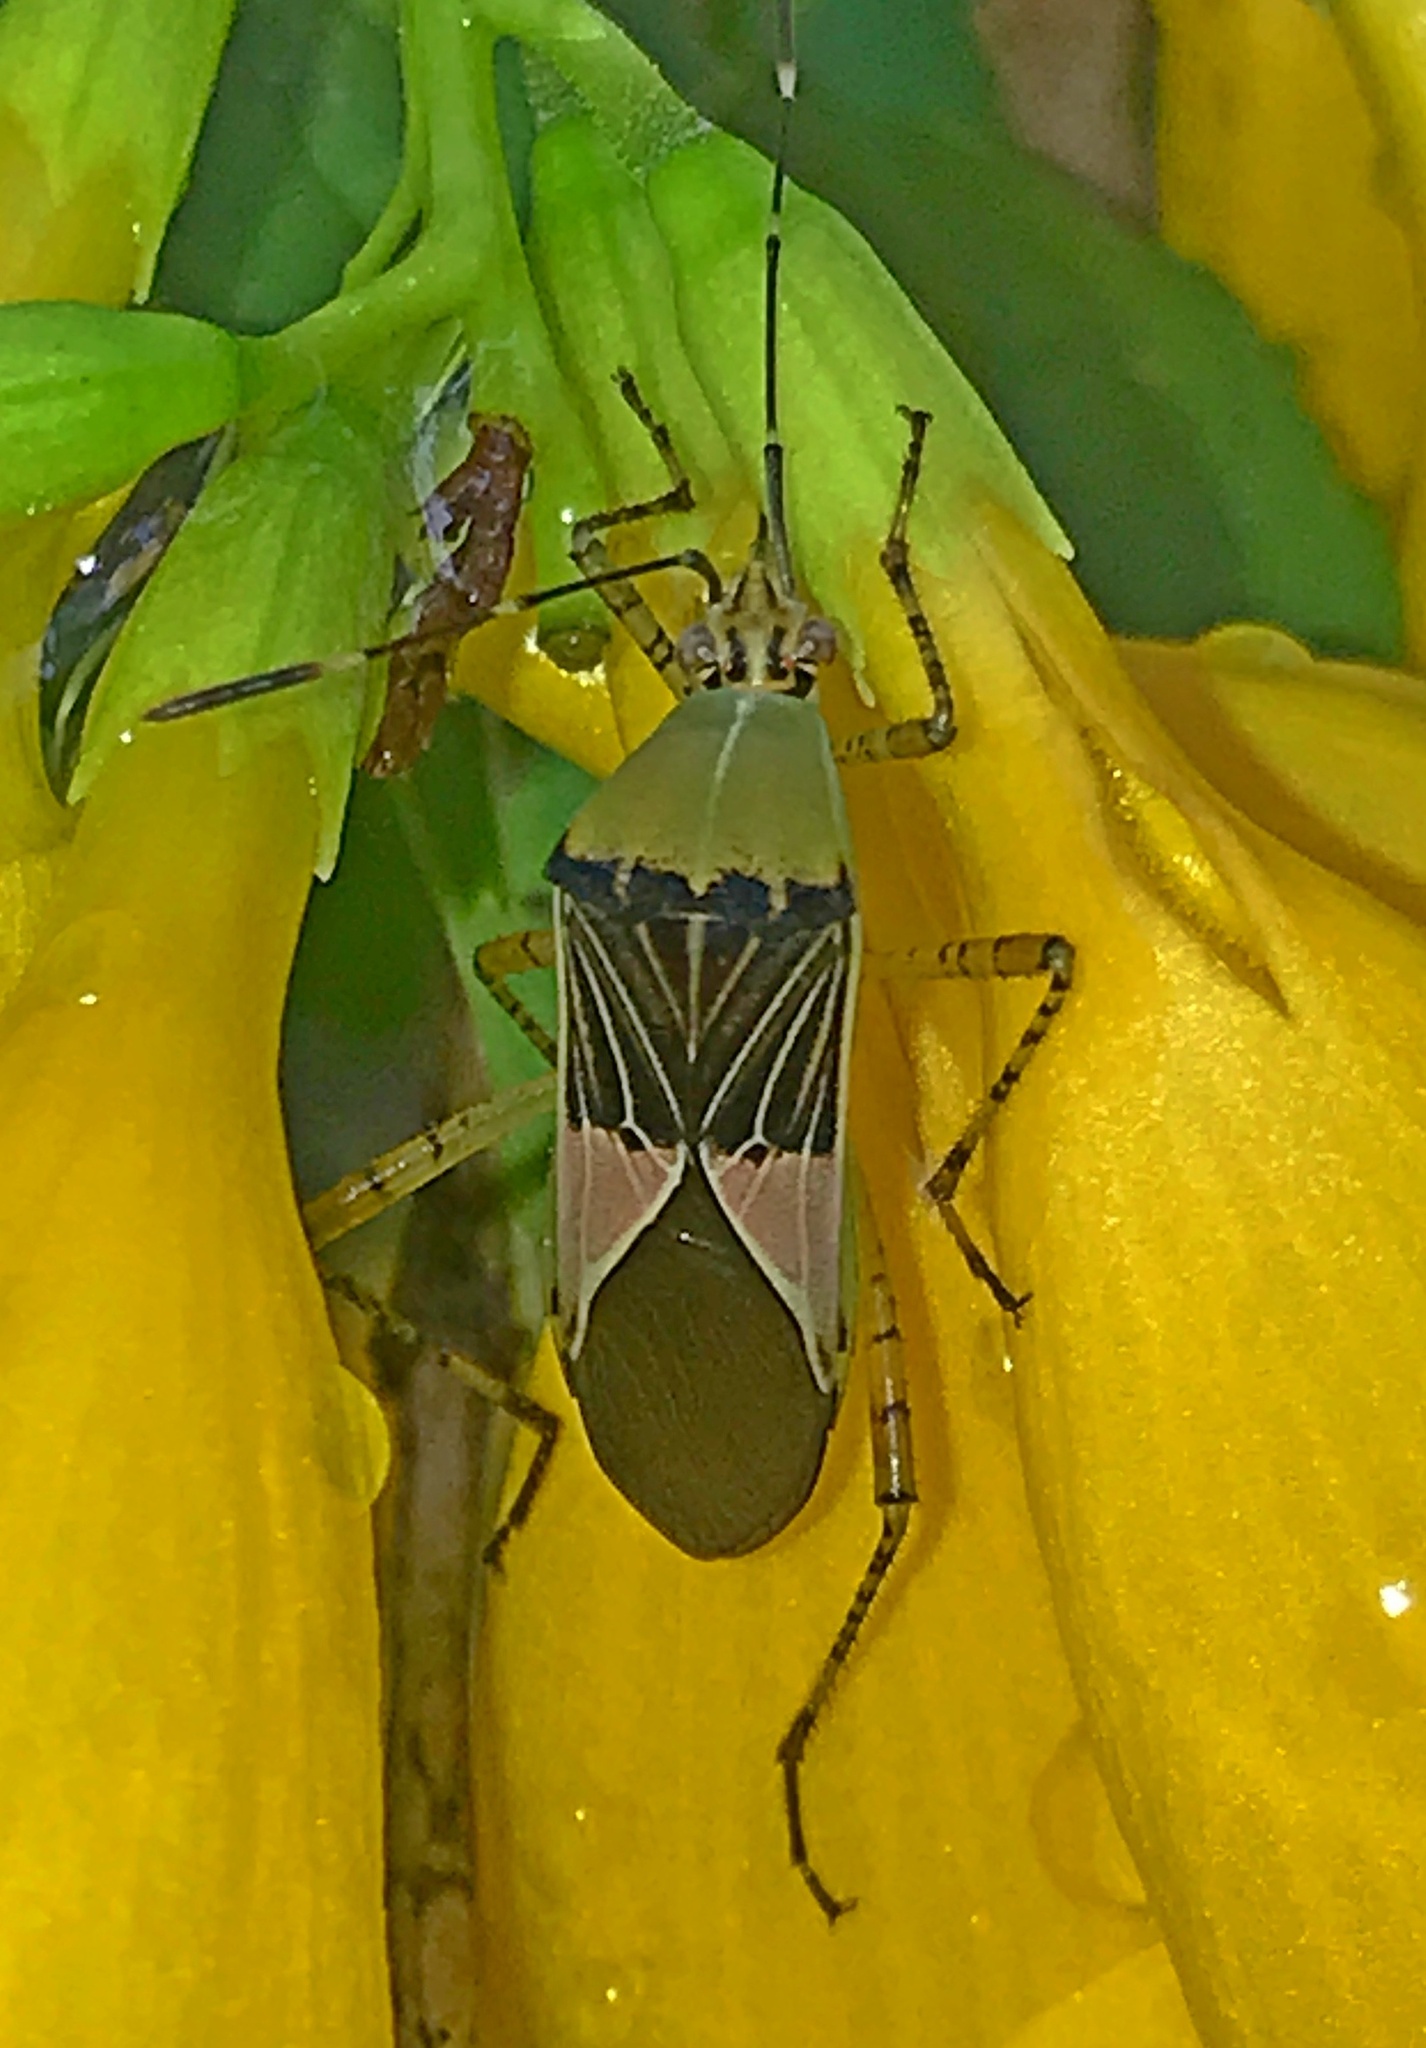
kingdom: Animalia
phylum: Arthropoda
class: Insecta
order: Hemiptera
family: Coreidae
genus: Hypselonotus
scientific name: Hypselonotus fulvus
